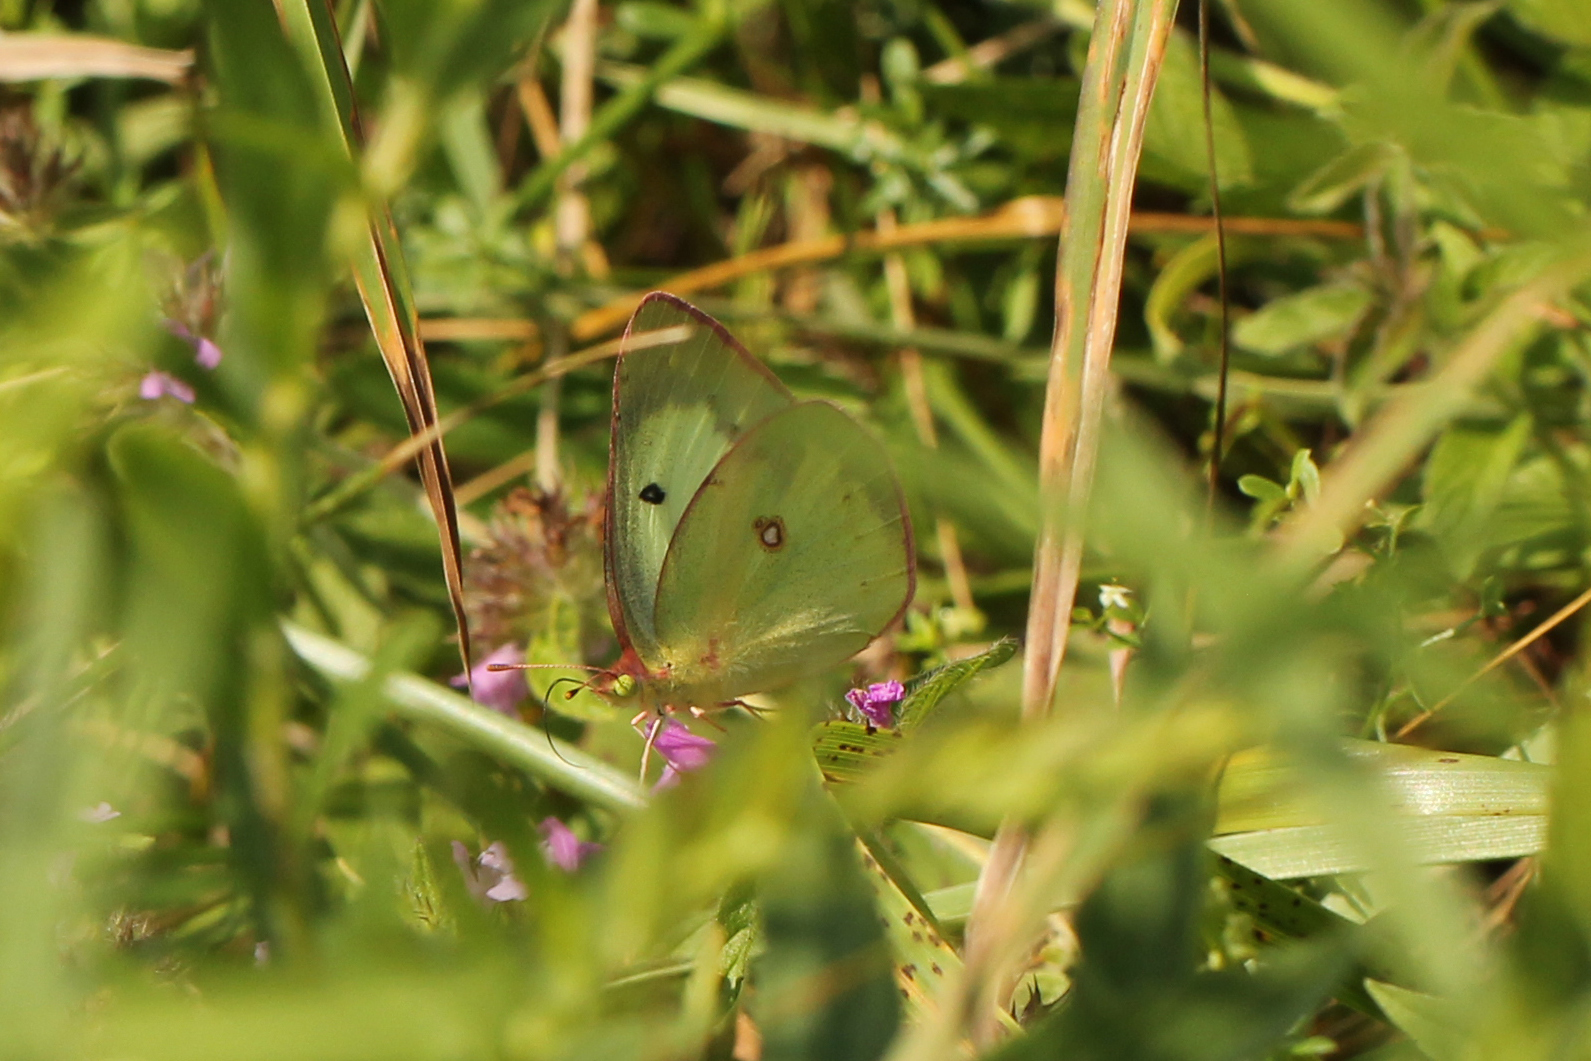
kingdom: Animalia
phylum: Arthropoda
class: Insecta
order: Lepidoptera
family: Pieridae
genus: Colias
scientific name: Colias philodice
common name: Clouded sulphur
